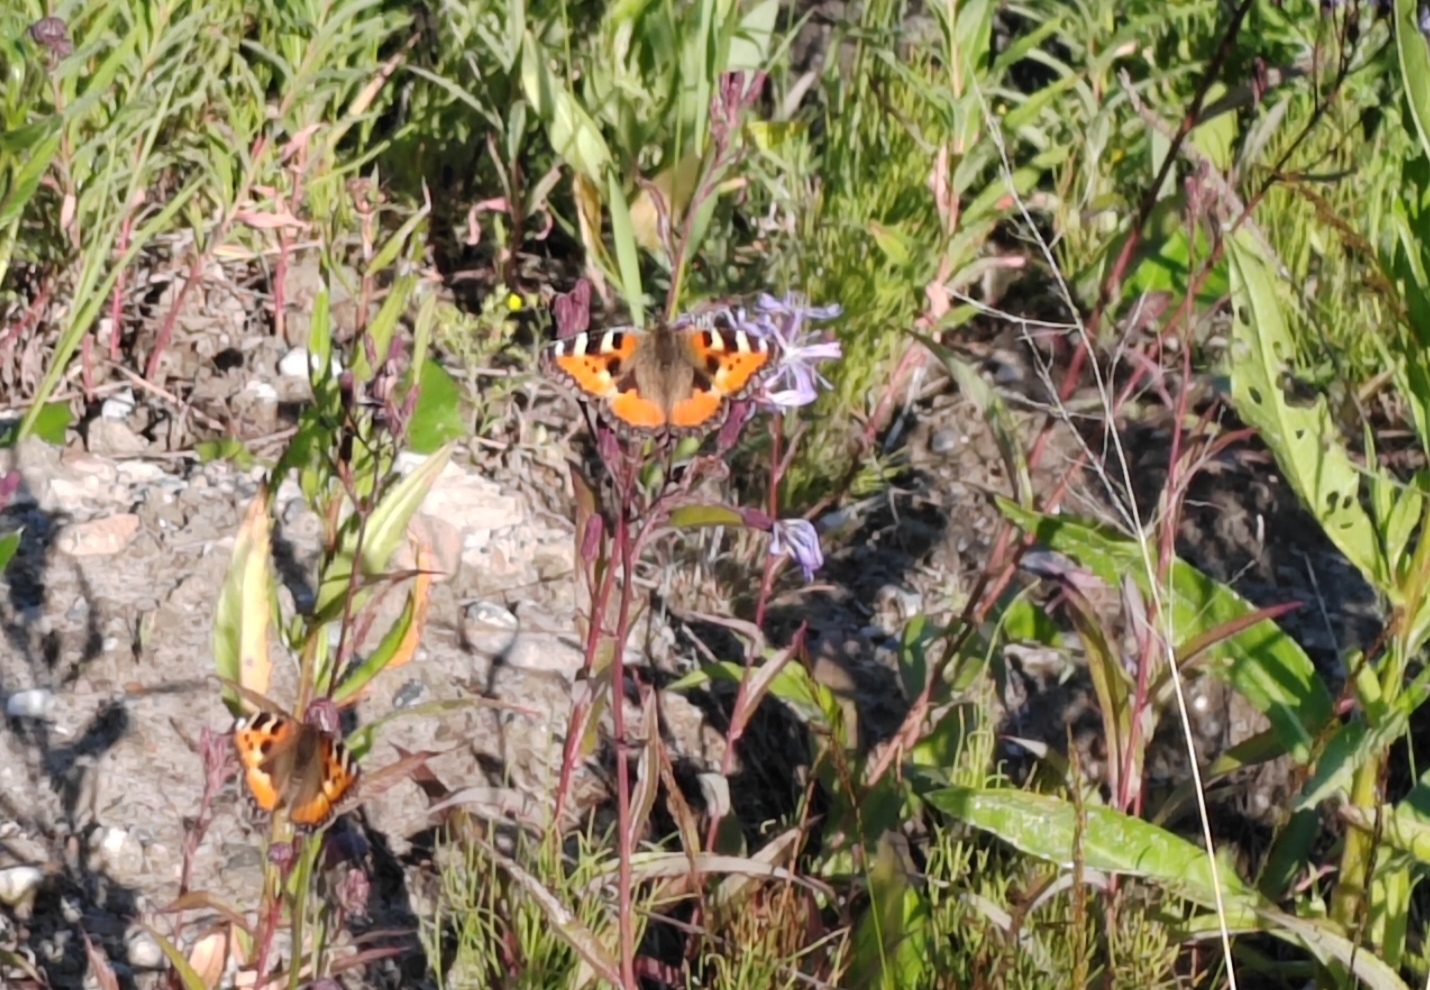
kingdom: Animalia
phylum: Arthropoda
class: Insecta
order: Lepidoptera
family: Nymphalidae
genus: Aglais
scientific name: Aglais urticae
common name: Small tortoiseshell
